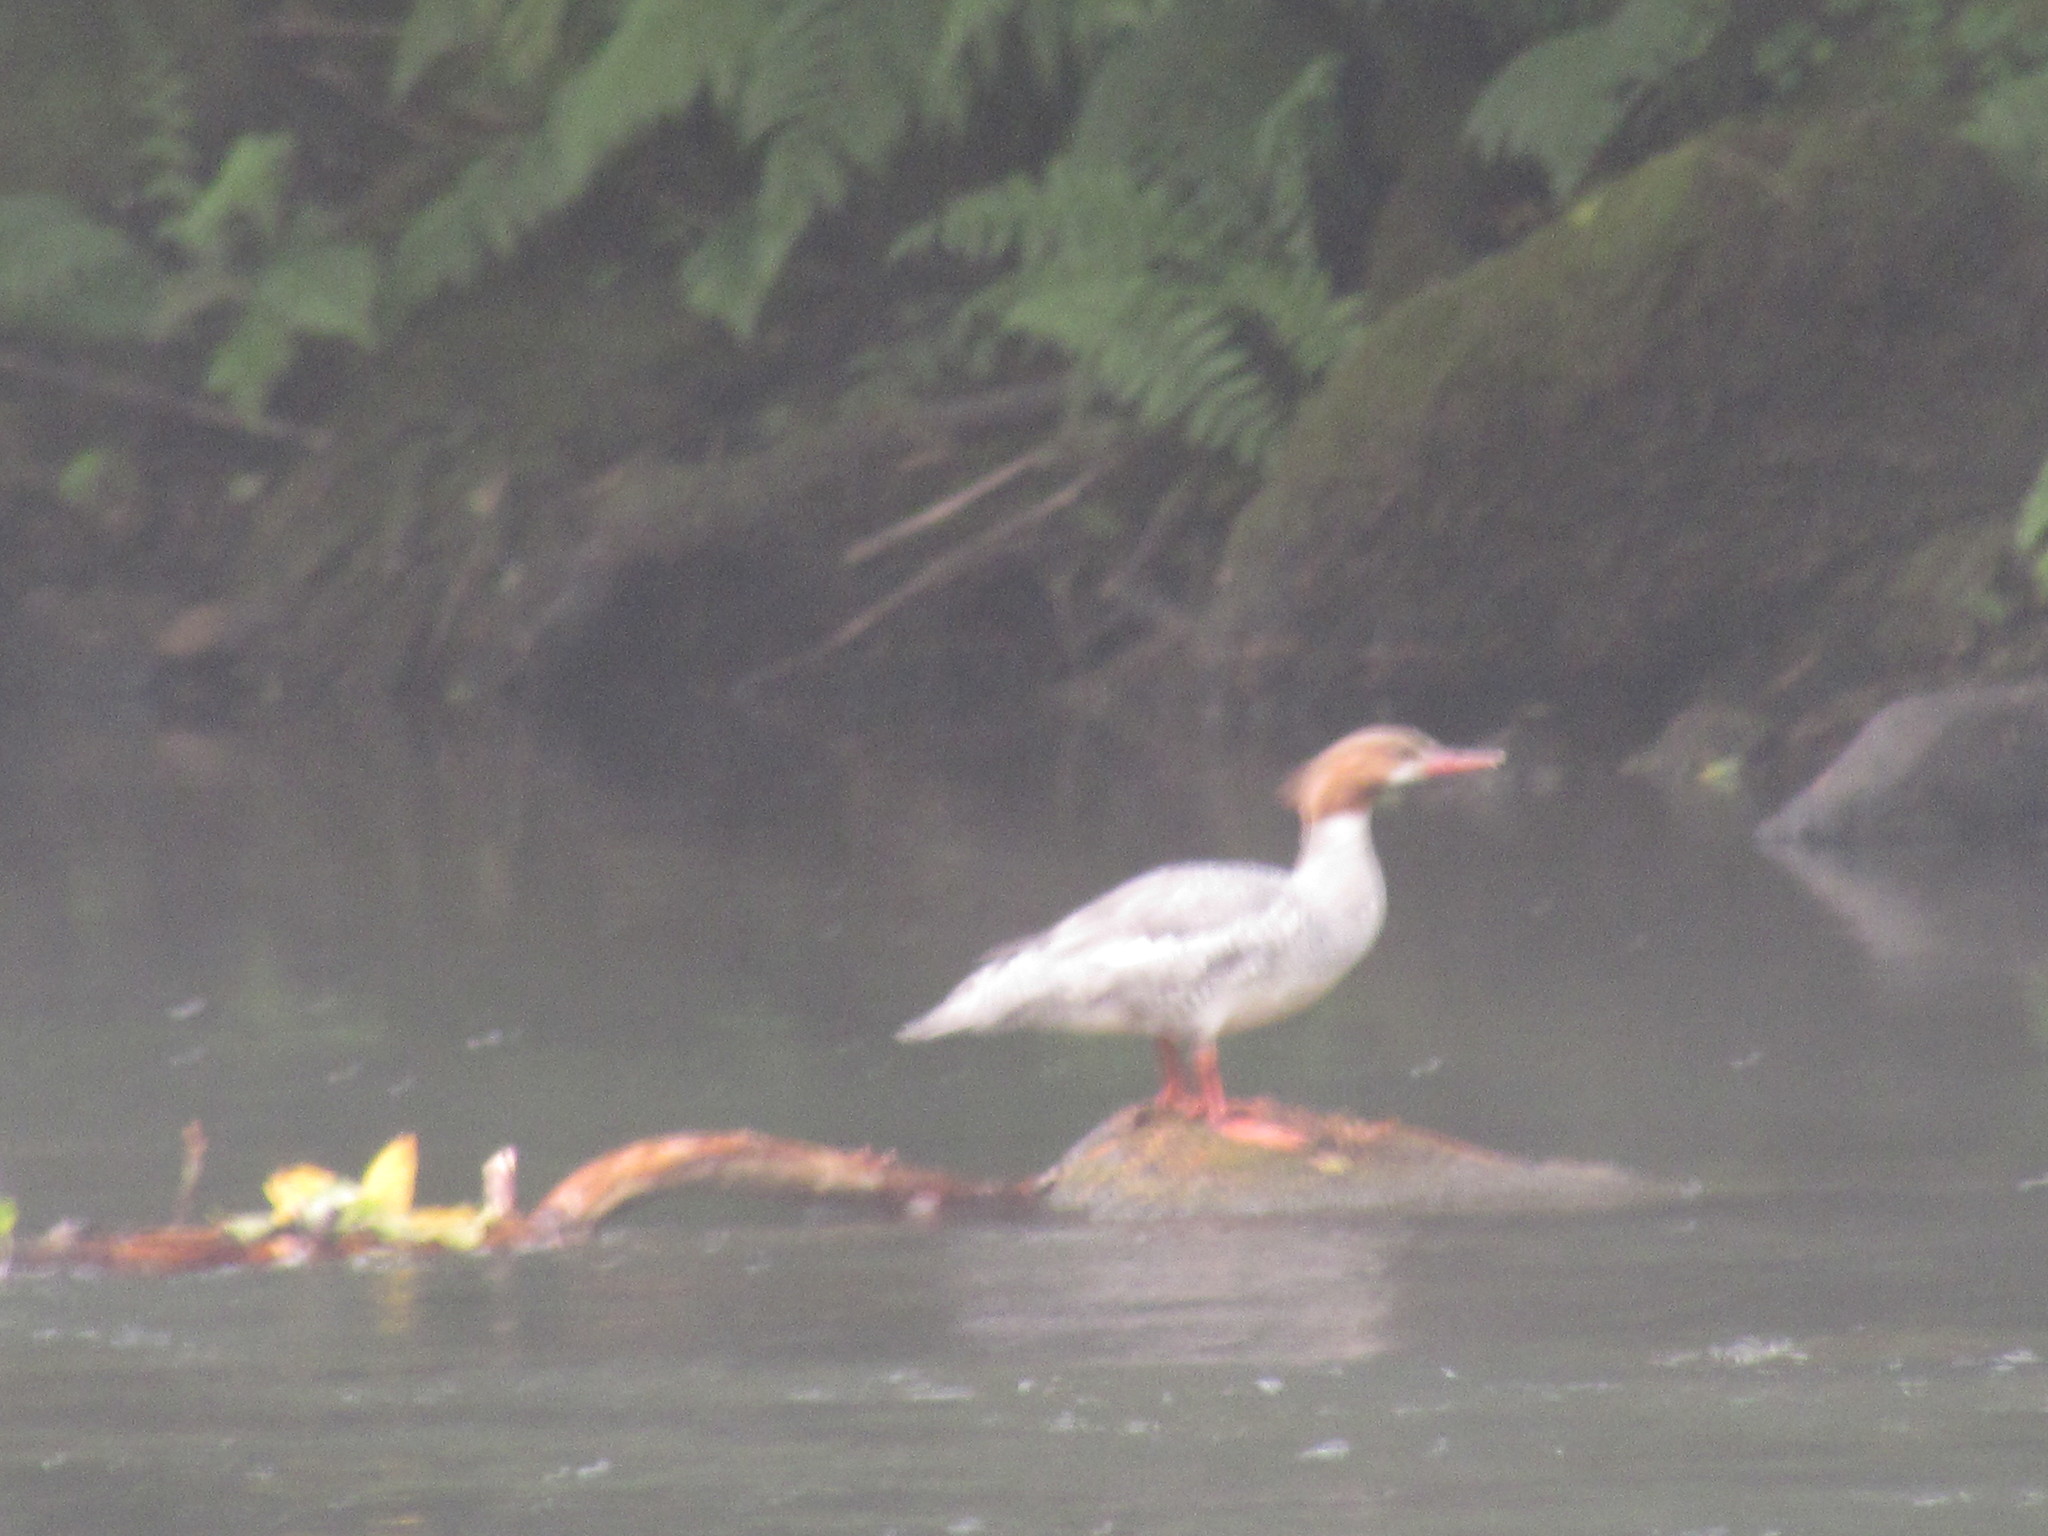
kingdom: Animalia
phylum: Chordata
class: Aves
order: Anseriformes
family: Anatidae
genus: Mergus
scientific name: Mergus merganser
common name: Common merganser
